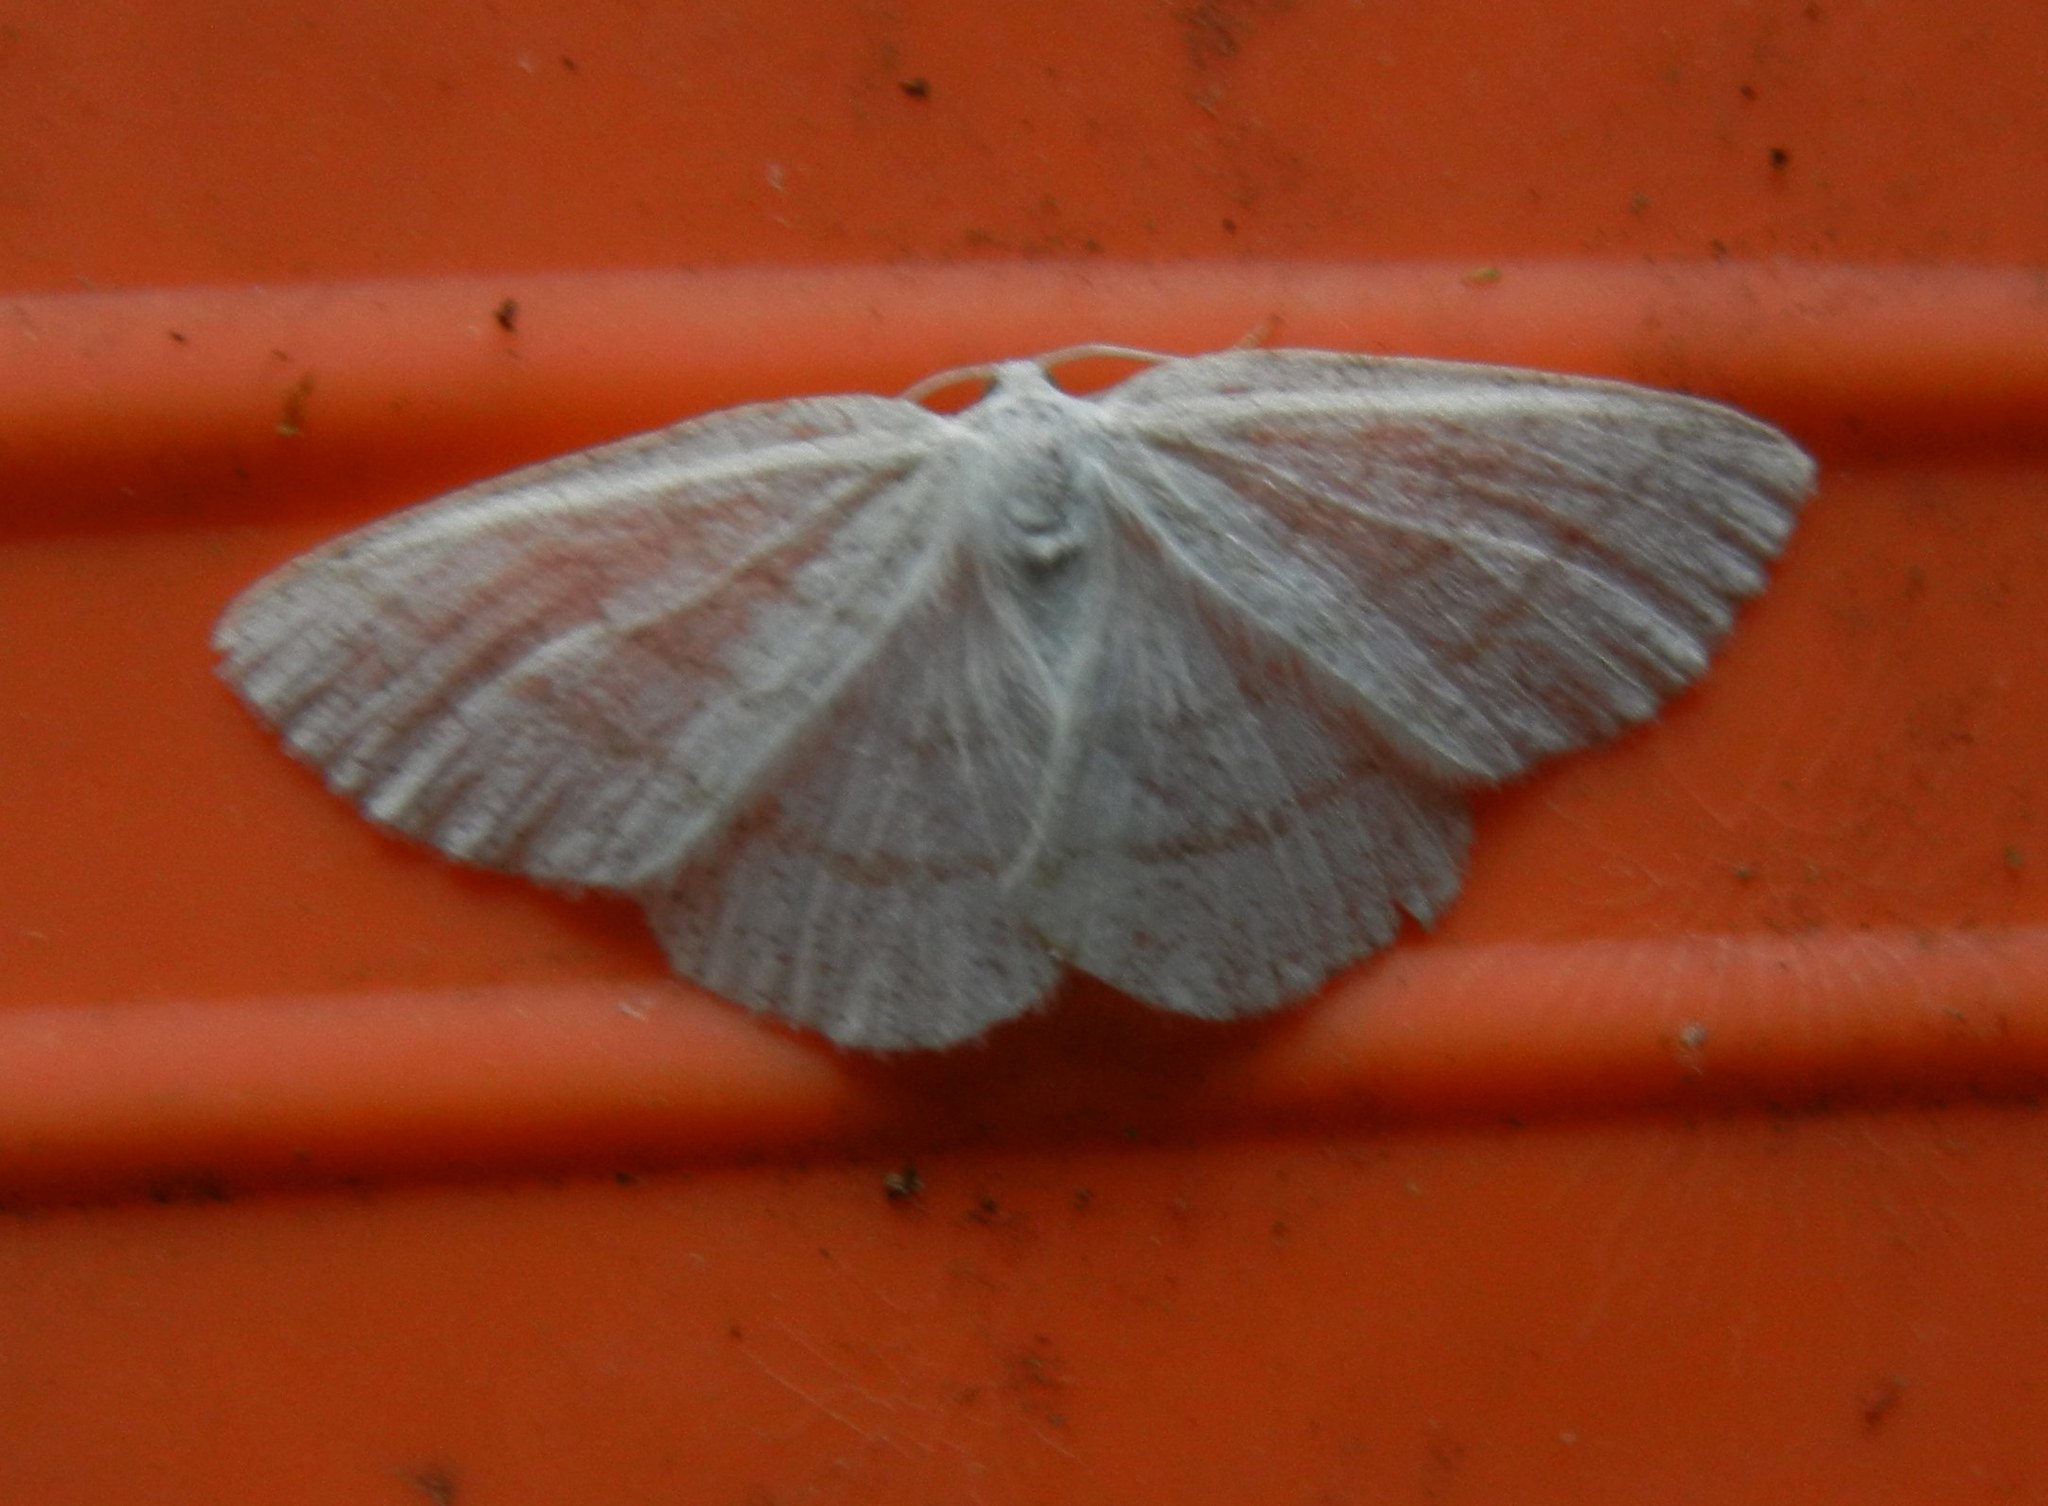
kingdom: Animalia
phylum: Arthropoda
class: Insecta
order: Lepidoptera
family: Geometridae
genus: Cabera
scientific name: Cabera pusaria
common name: Common white wave
